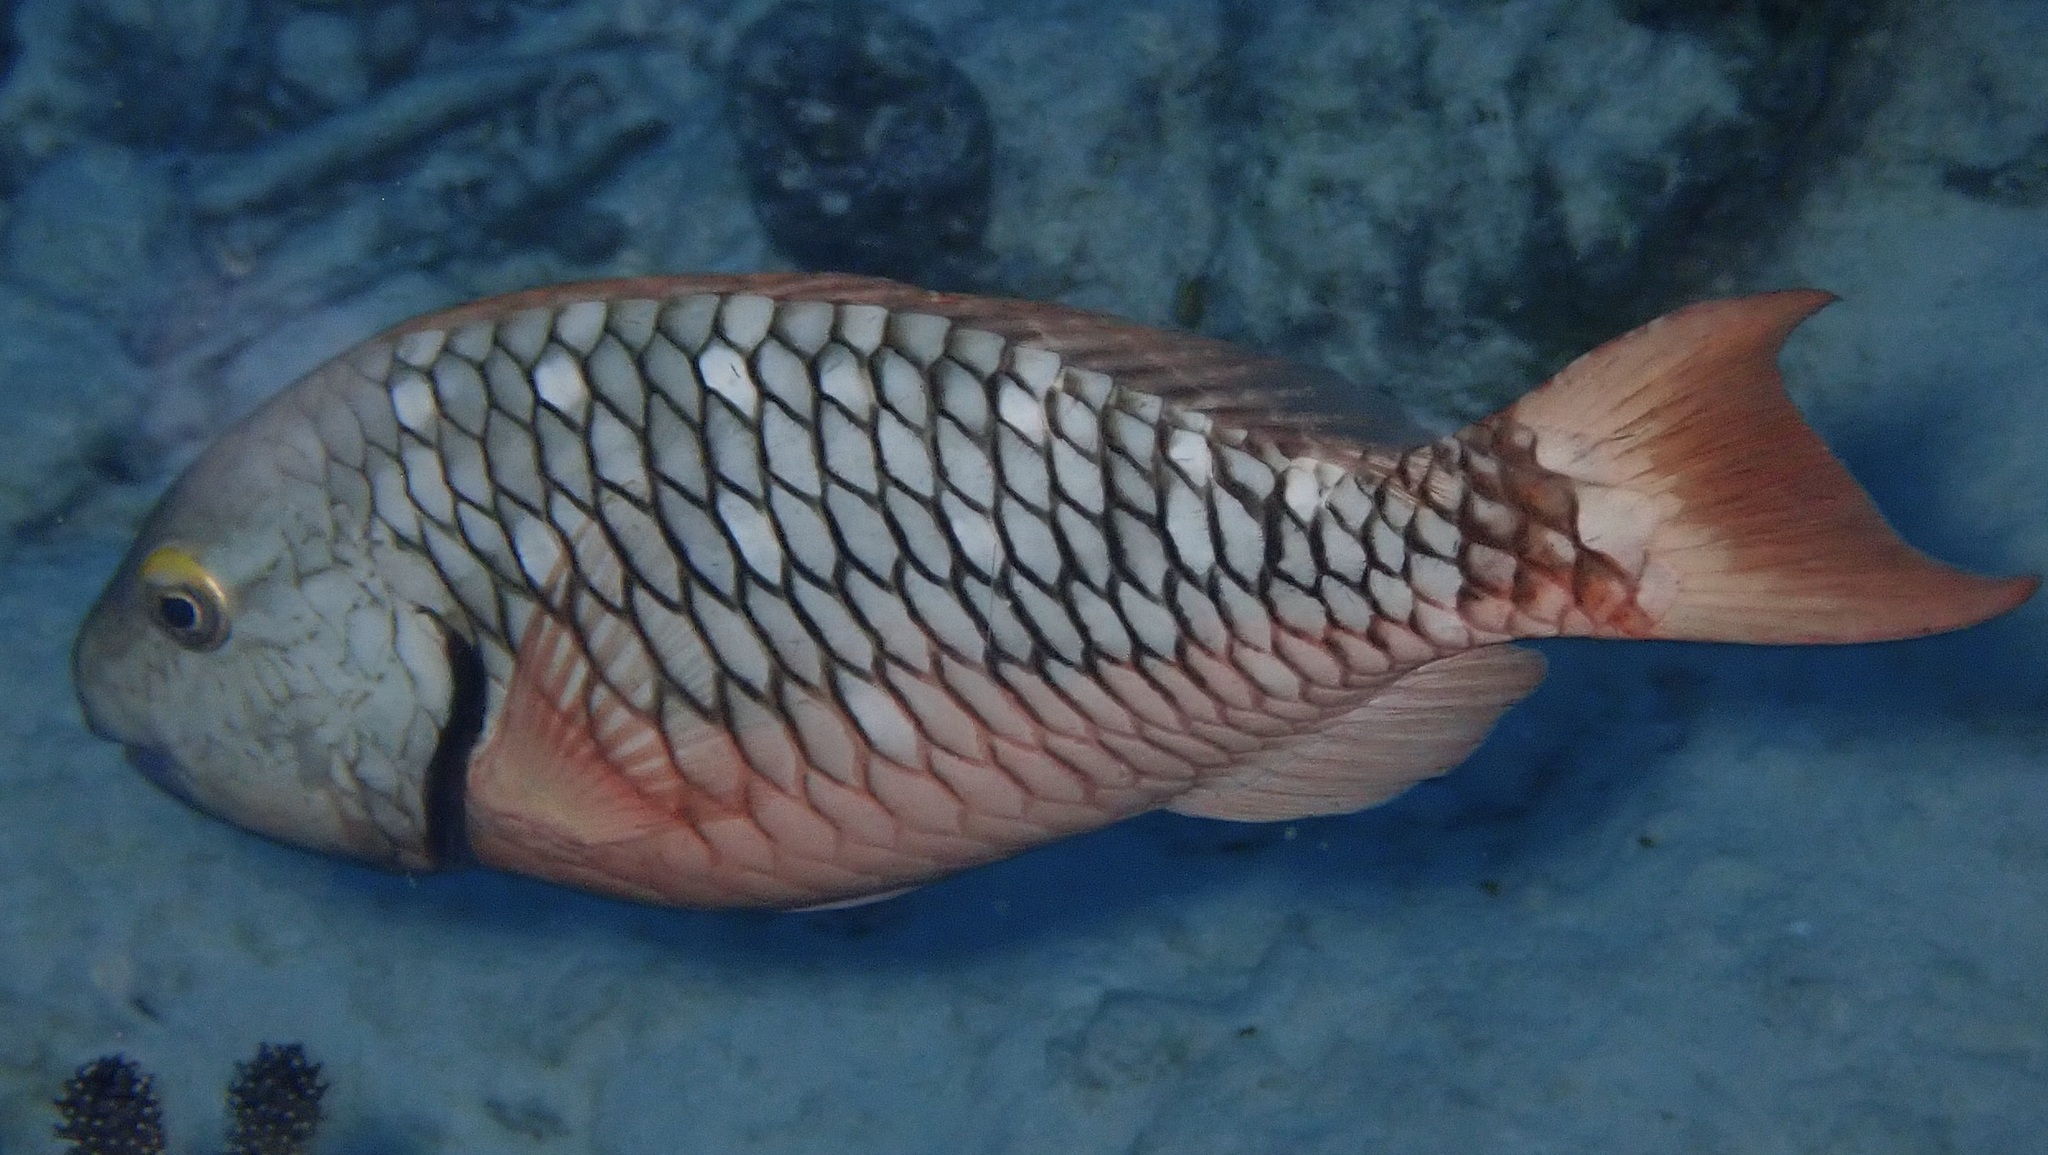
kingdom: Animalia
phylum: Chordata
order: Perciformes
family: Scaridae
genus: Sparisoma
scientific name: Sparisoma viride
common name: Stoplight parrotfish
